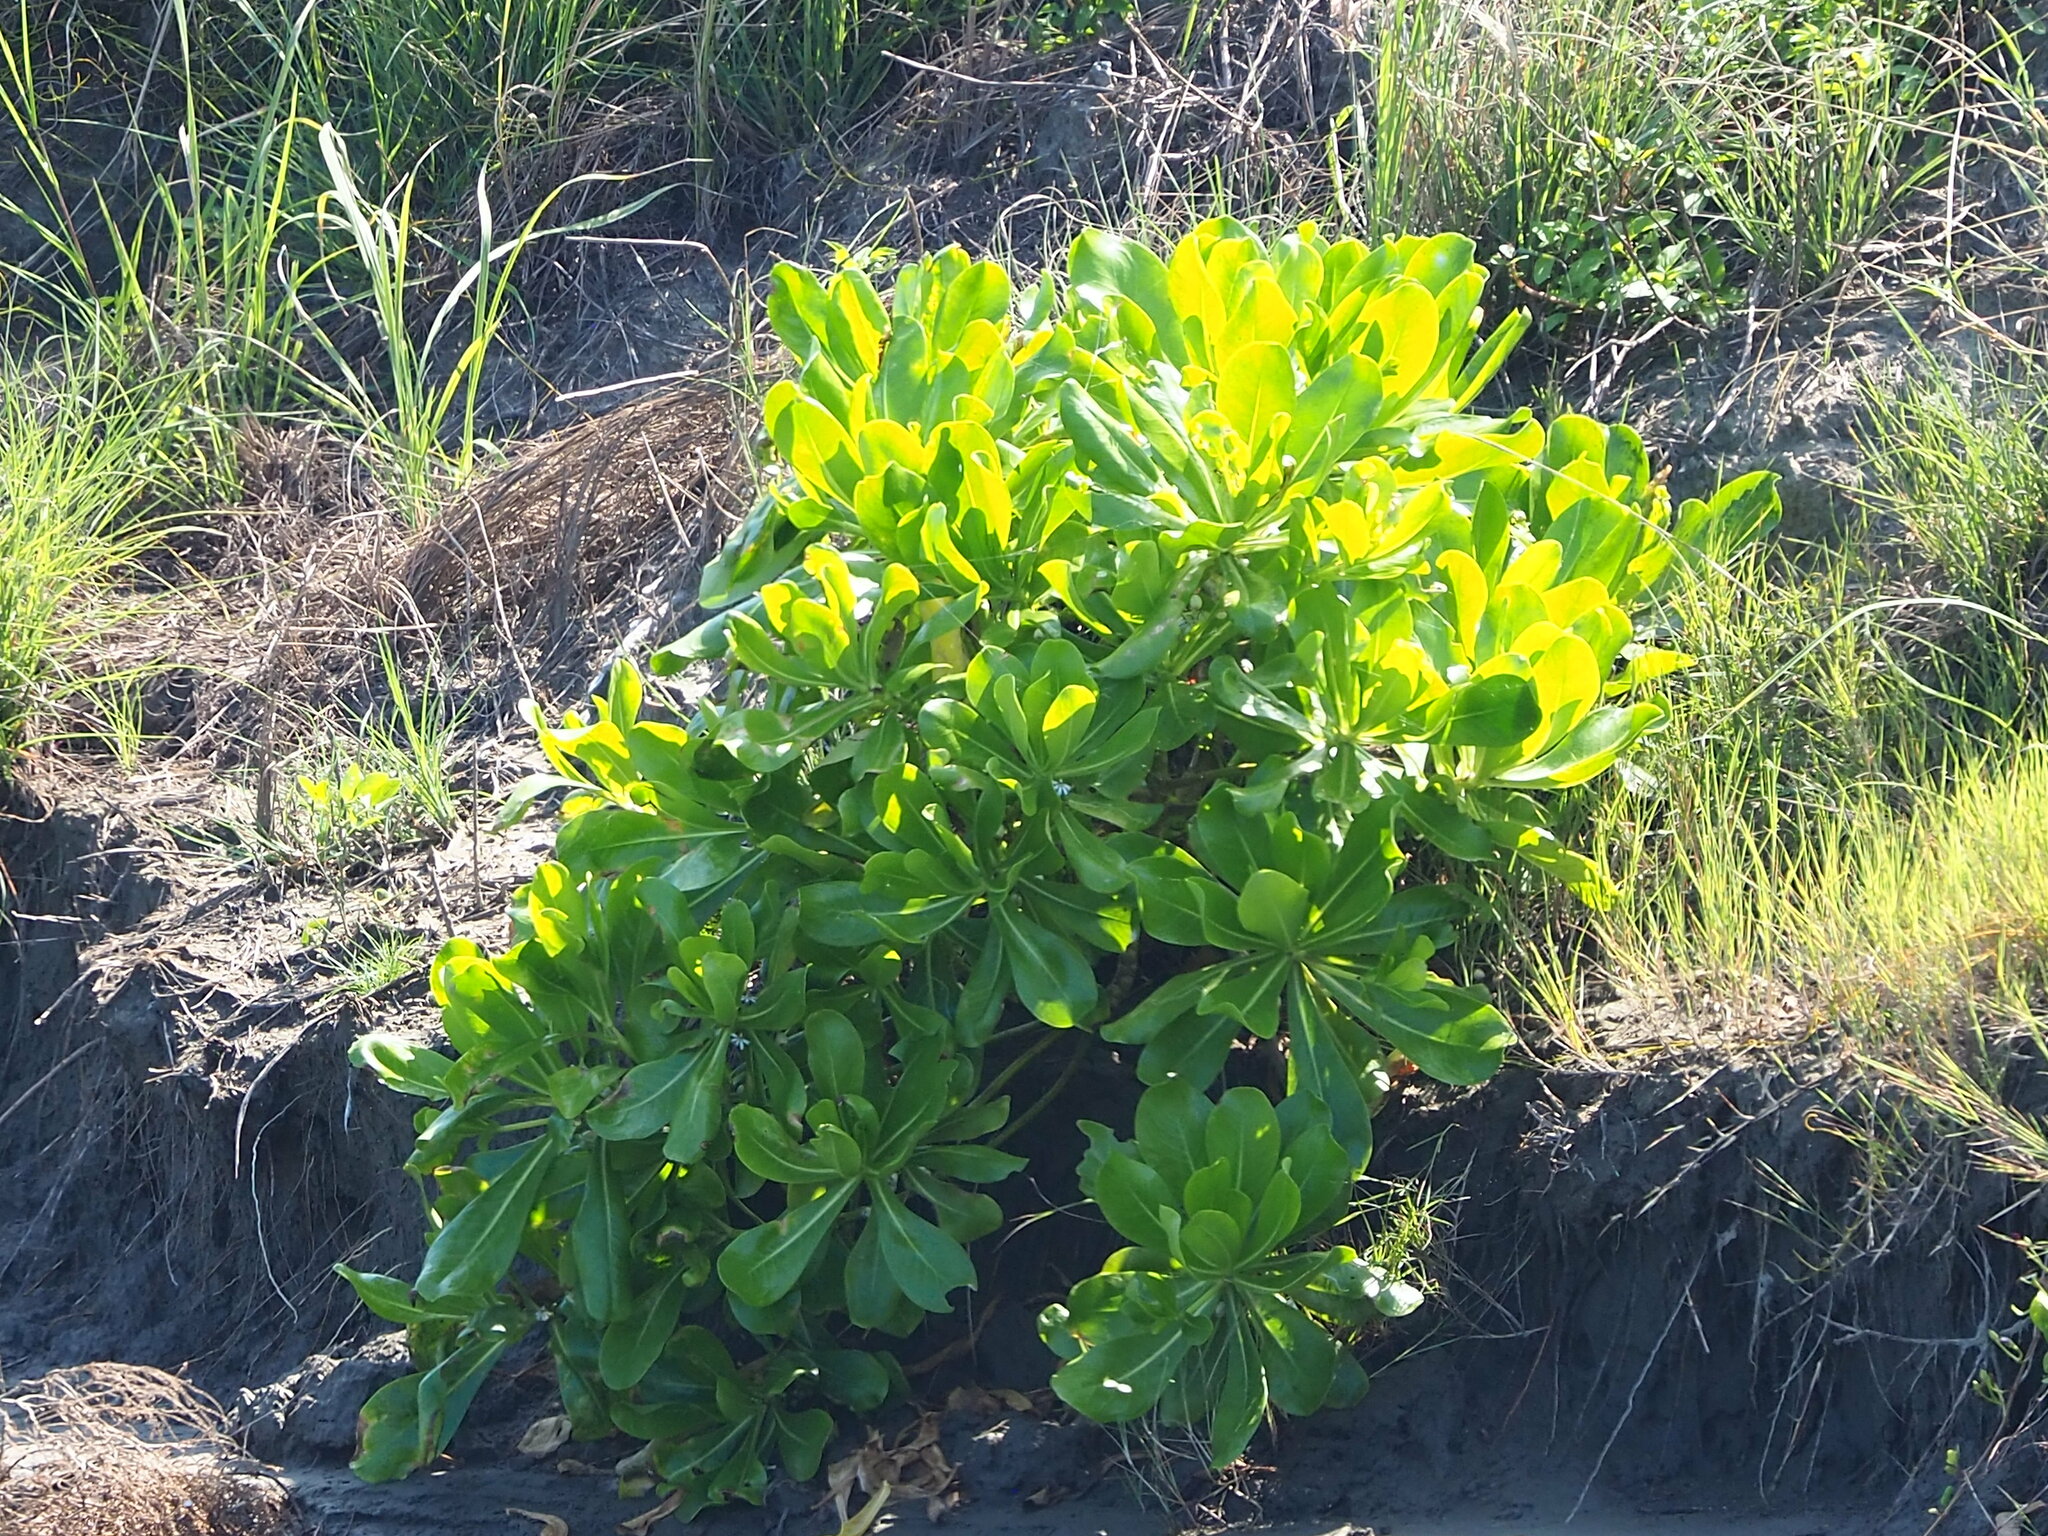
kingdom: Plantae
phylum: Tracheophyta
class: Magnoliopsida
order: Asterales
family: Goodeniaceae
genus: Scaevola
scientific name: Scaevola taccada
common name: Sea lettucetree
